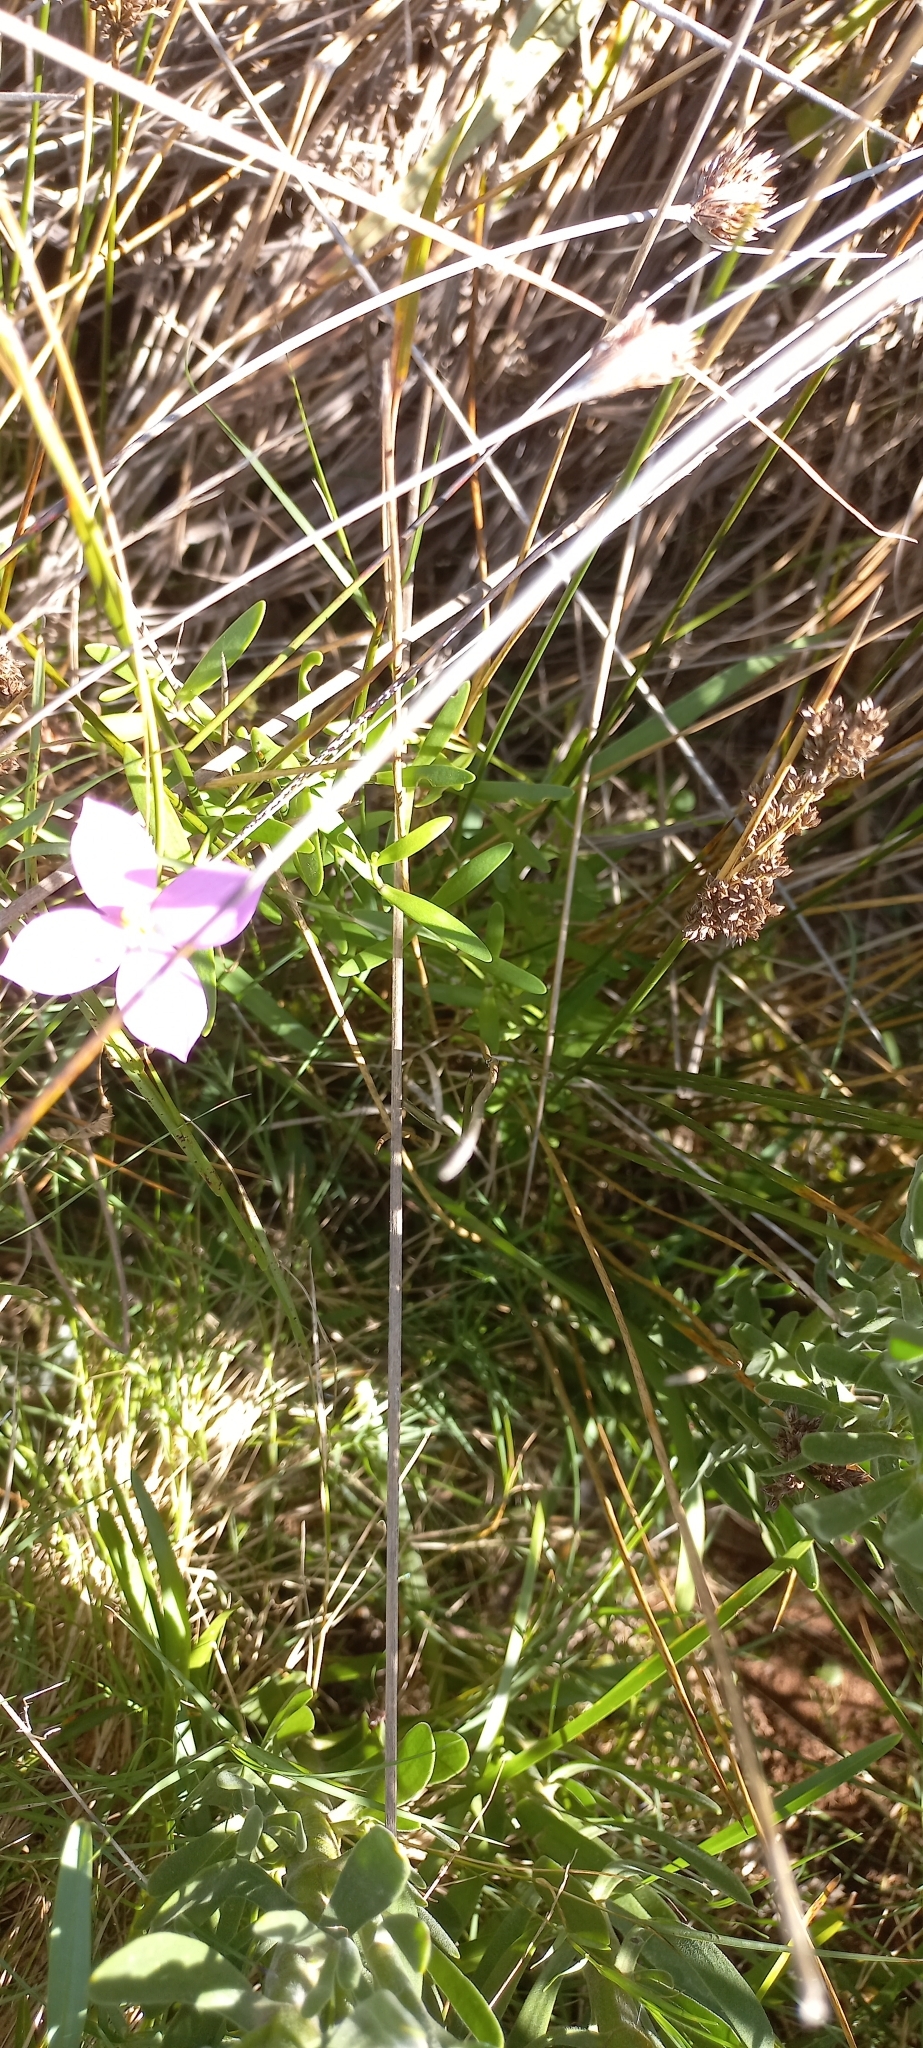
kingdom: Plantae
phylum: Tracheophyta
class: Magnoliopsida
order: Gentianales
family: Gentianaceae
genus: Orphium
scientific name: Orphium frutescens
